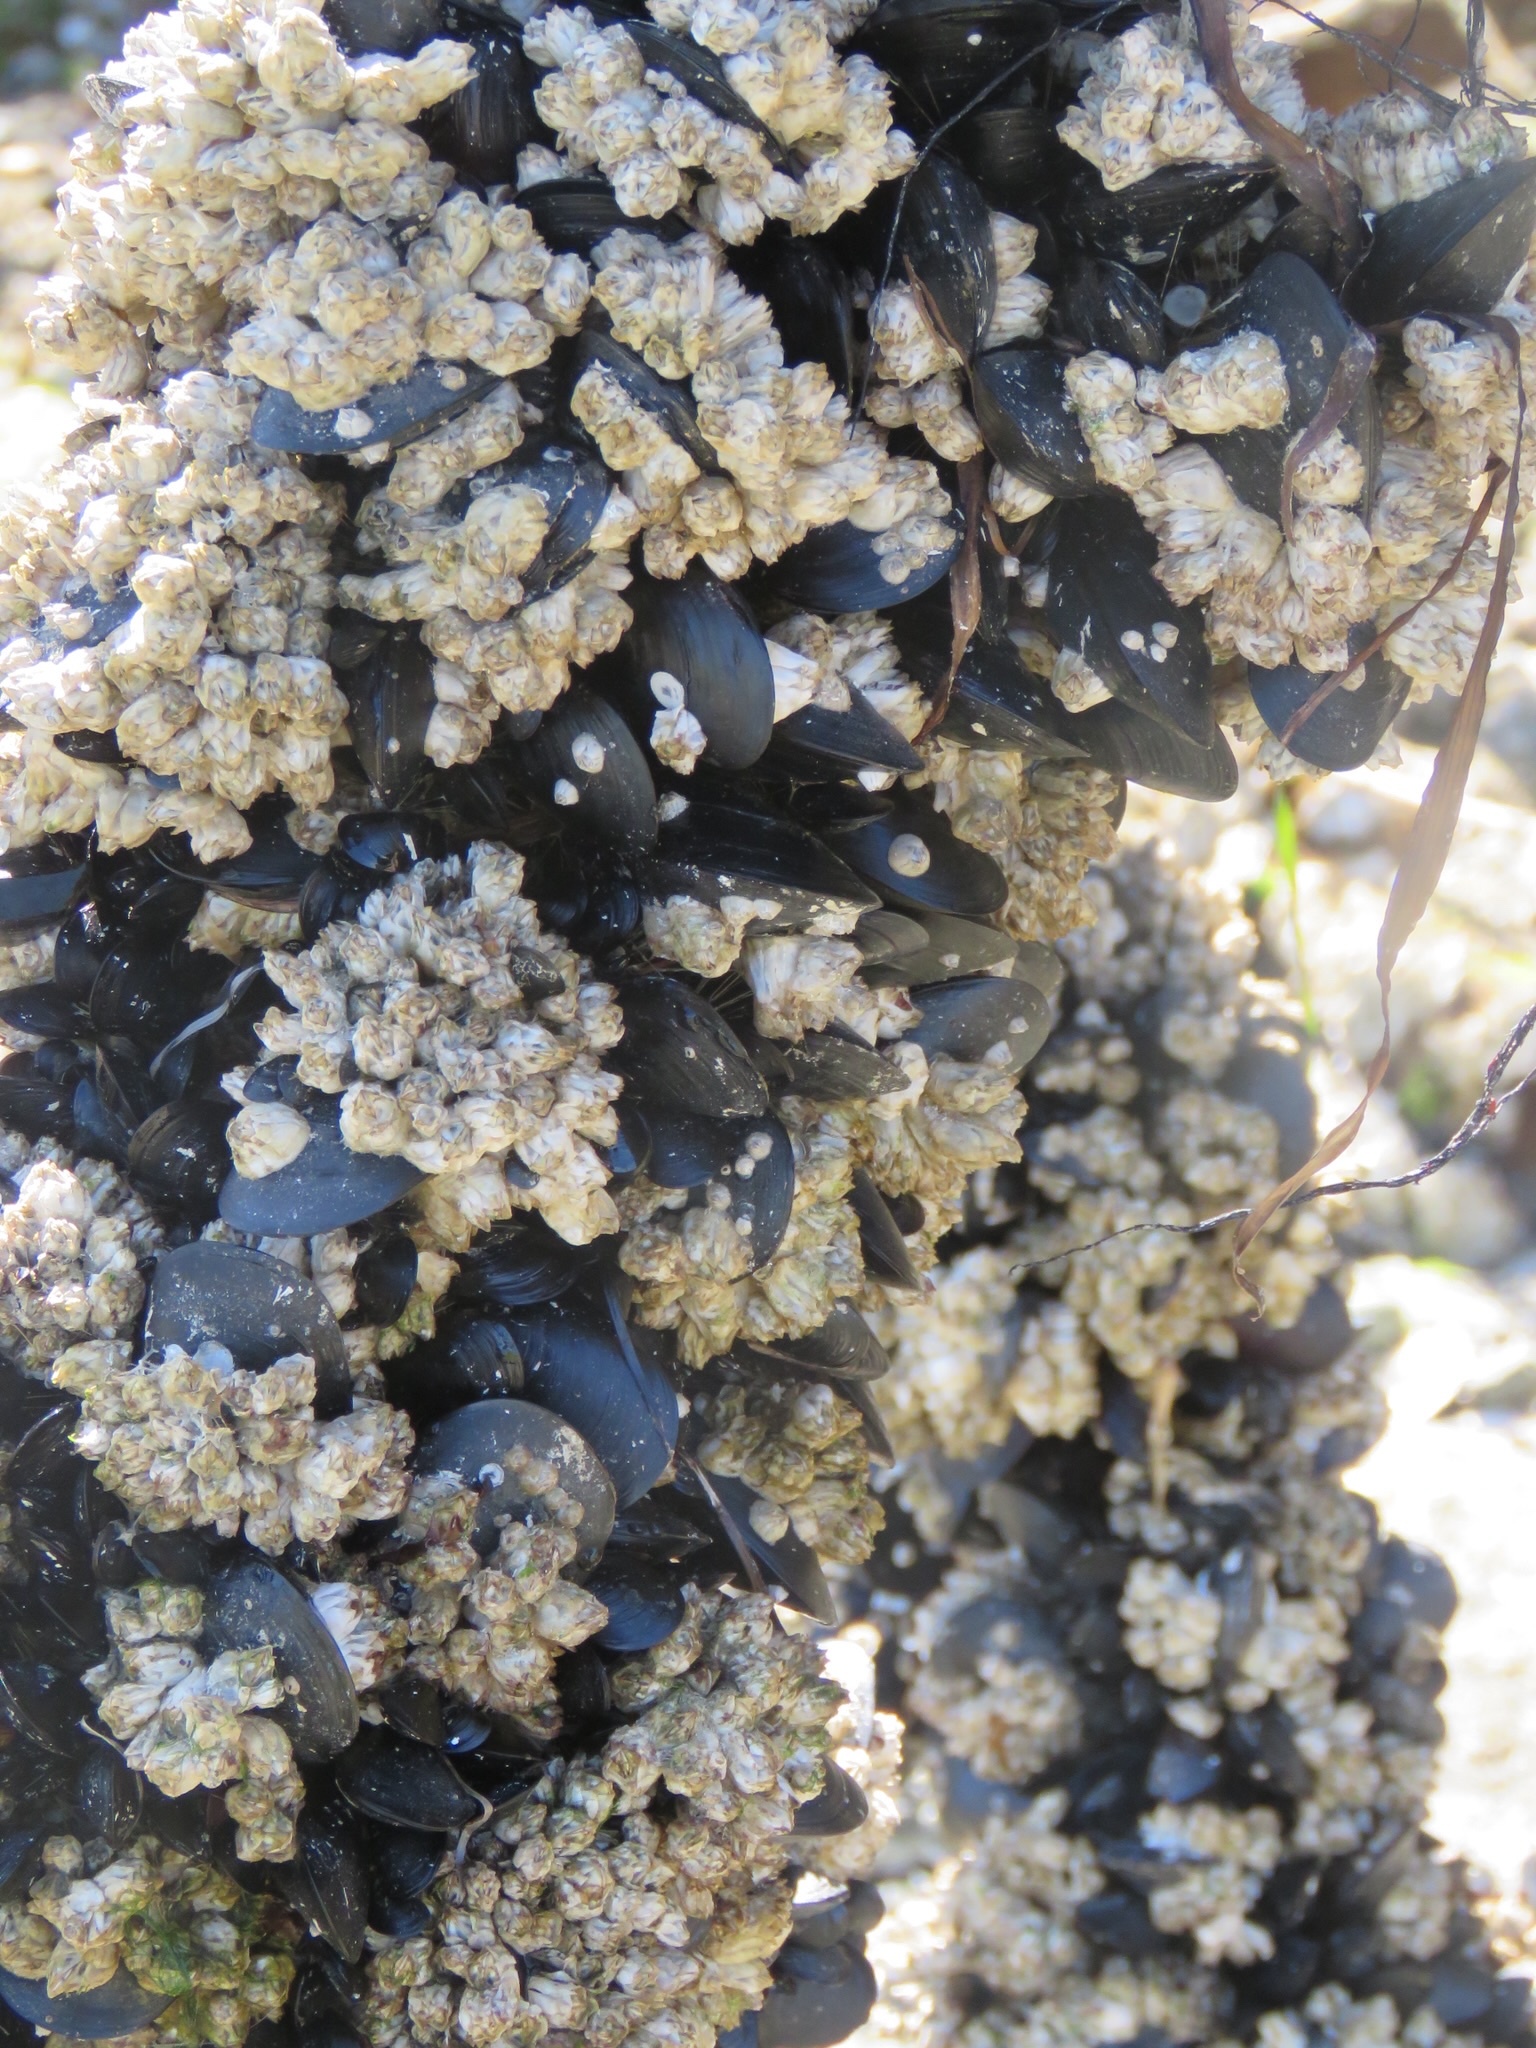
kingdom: Animalia
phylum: Mollusca
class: Bivalvia
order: Mytilida
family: Mytilidae
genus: Mytilus
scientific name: Mytilus
